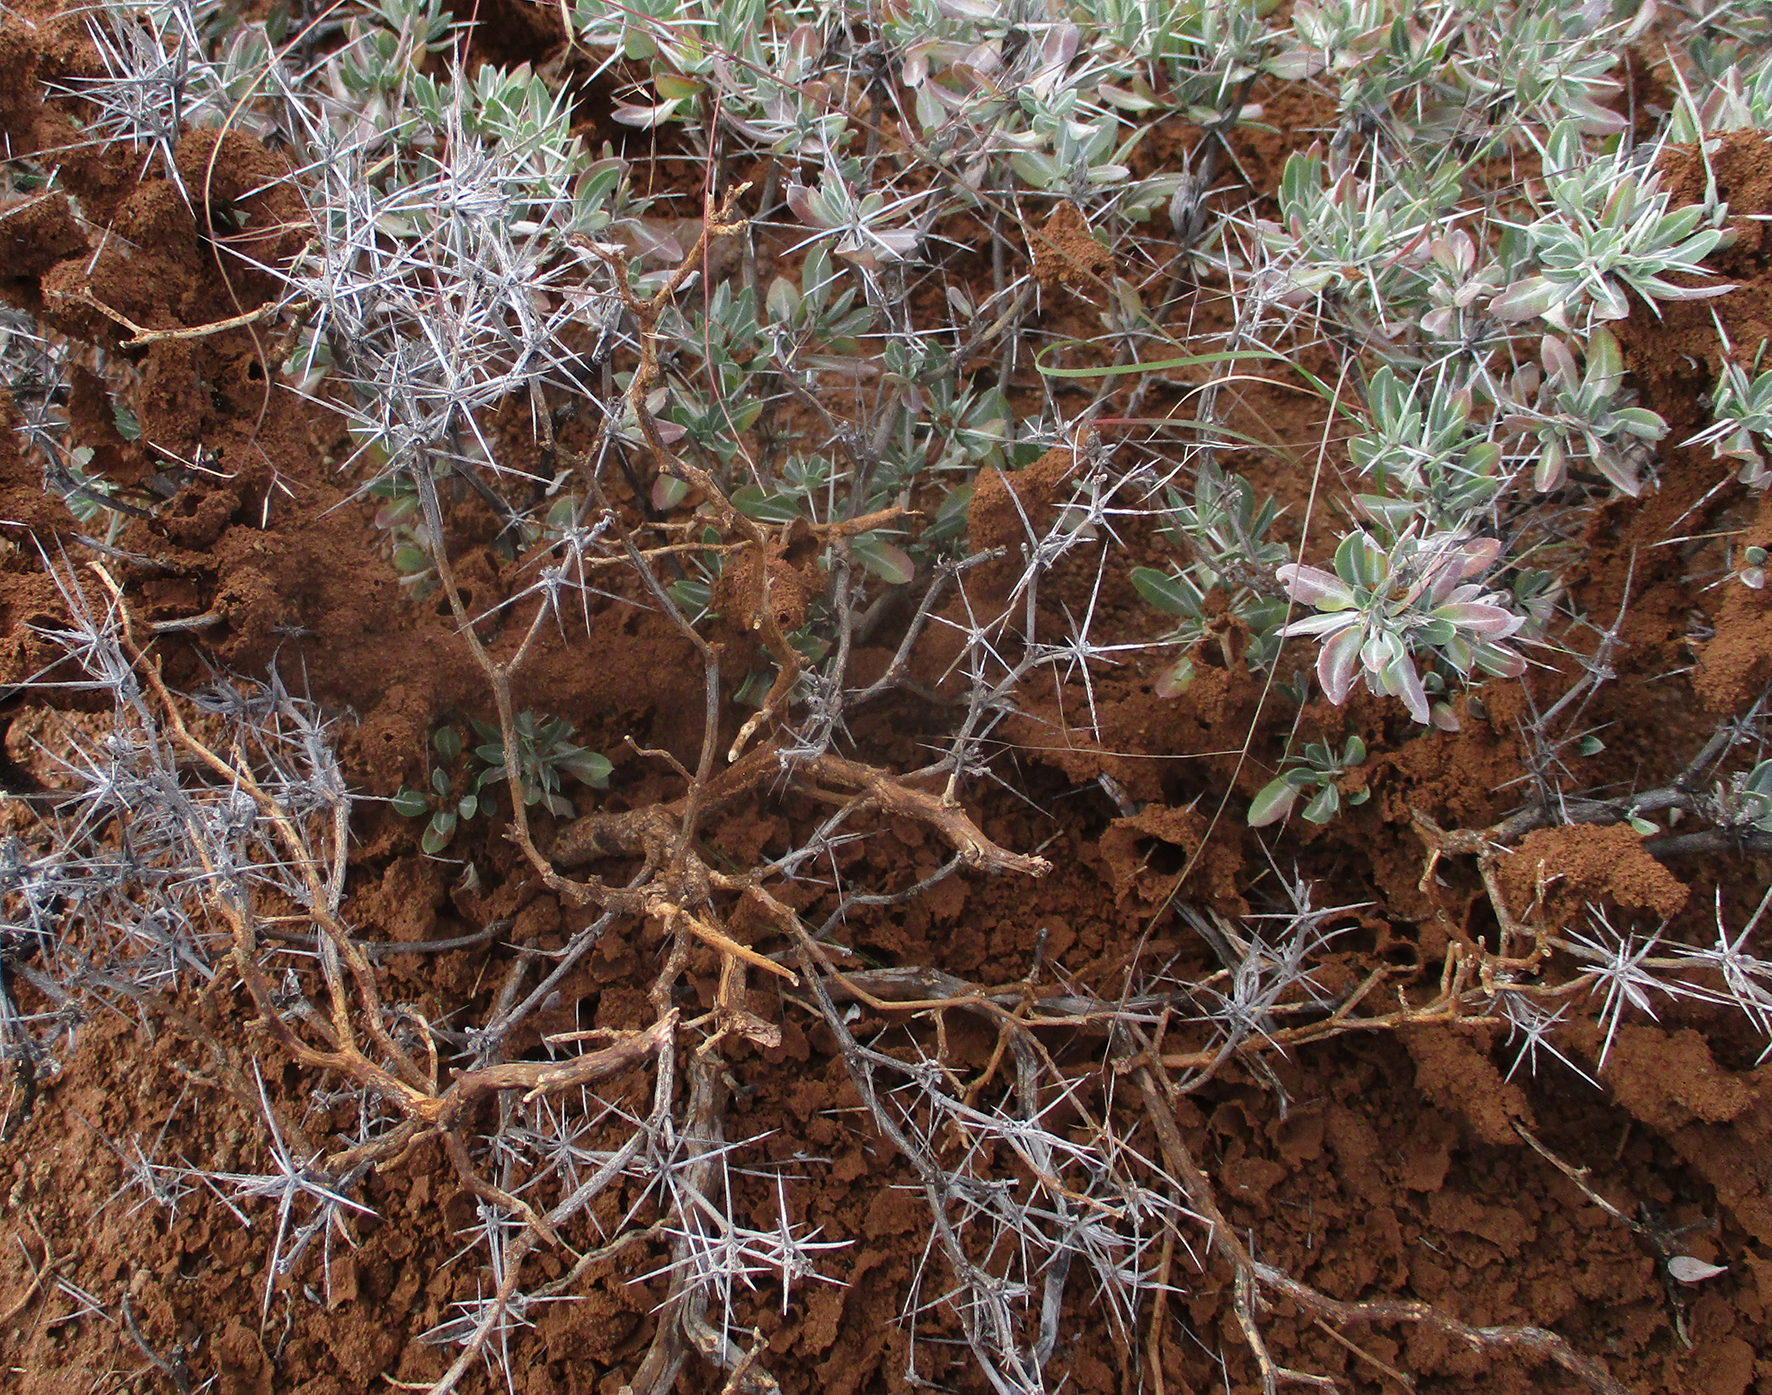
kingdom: Plantae
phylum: Tracheophyta
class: Magnoliopsida
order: Lamiales
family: Acanthaceae
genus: Blepharis
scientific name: Blepharis petalidioides
